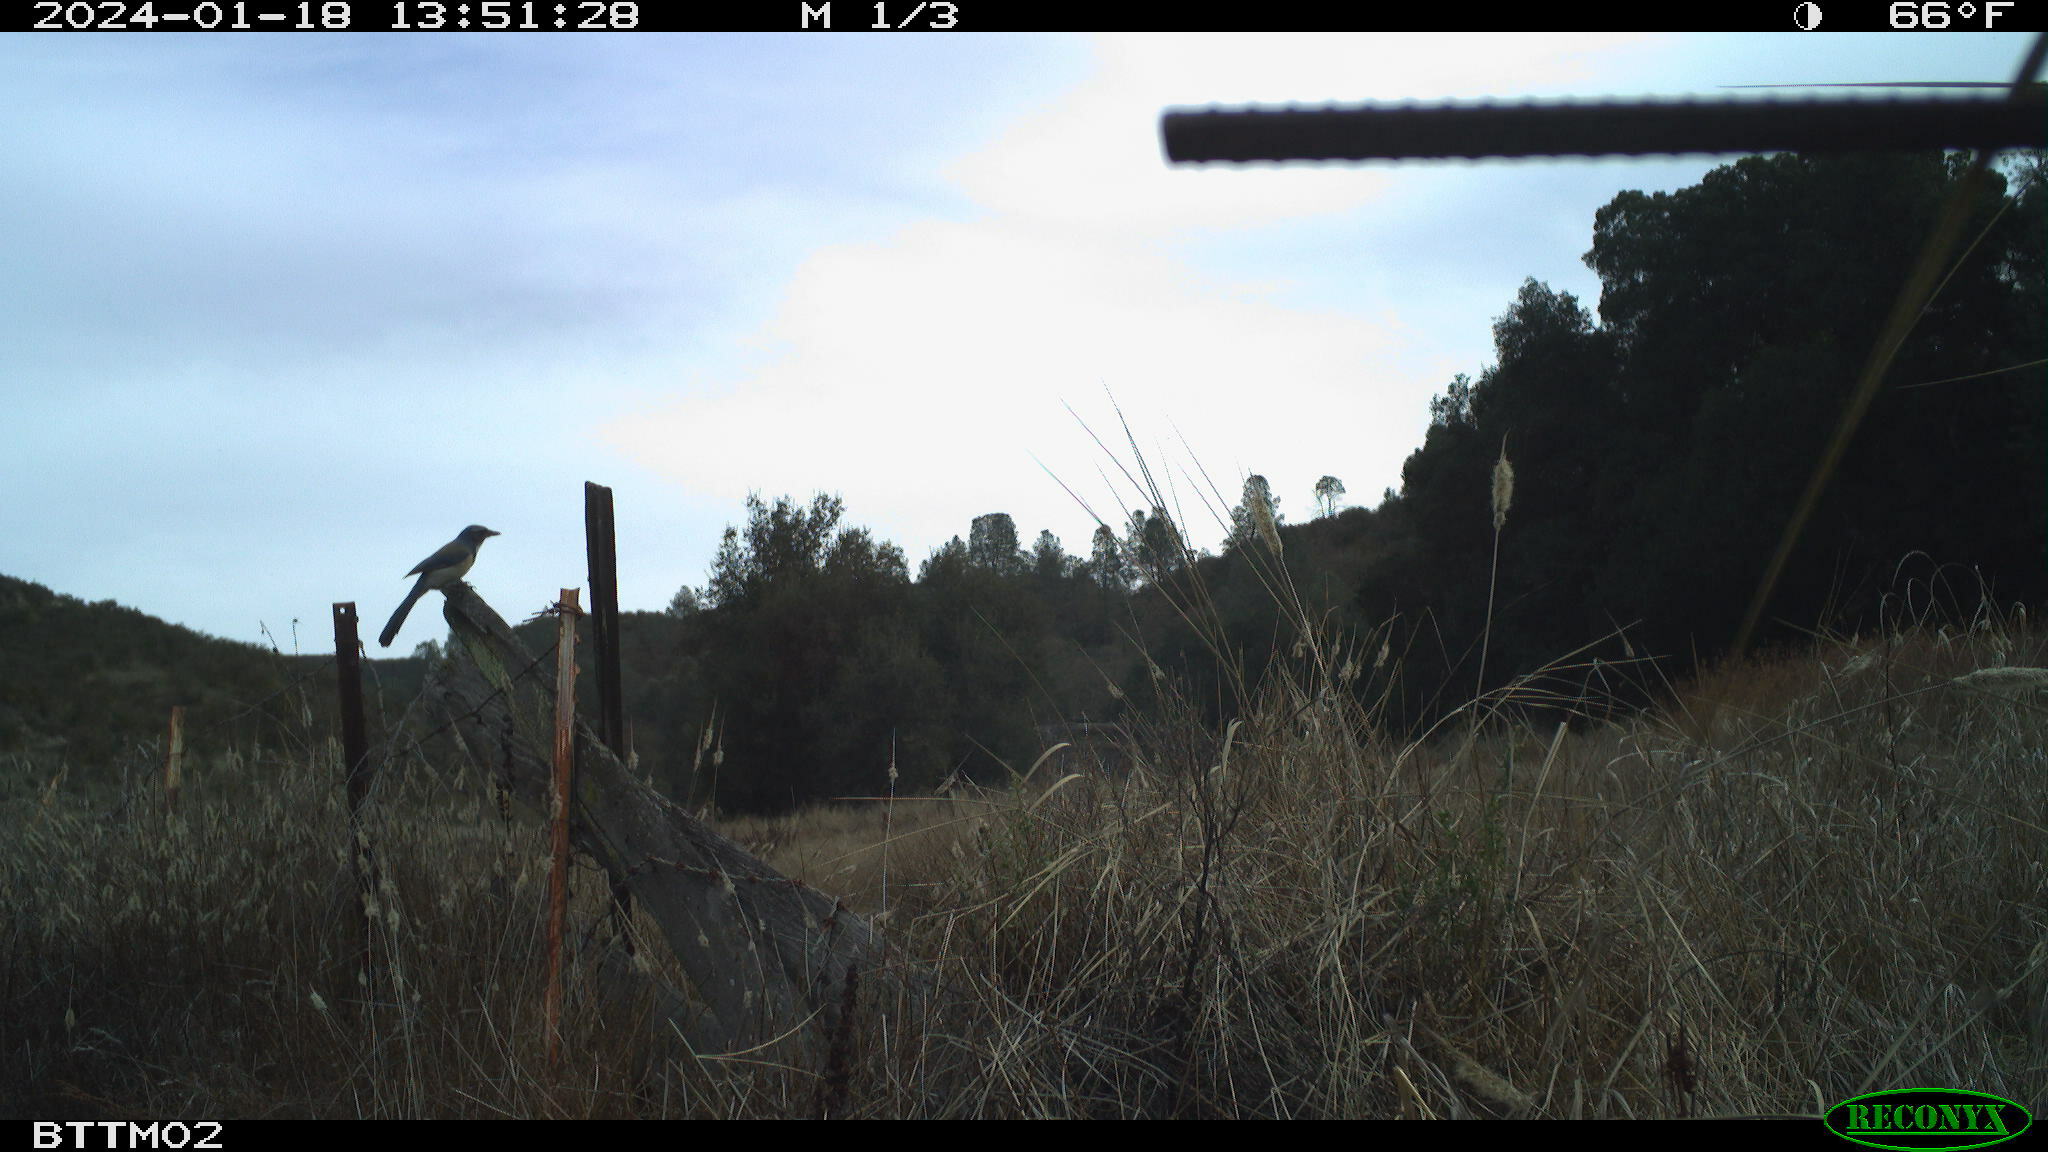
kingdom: Animalia
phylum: Chordata
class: Aves
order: Passeriformes
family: Corvidae
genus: Aphelocoma
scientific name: Aphelocoma californica
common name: California scrub-jay
